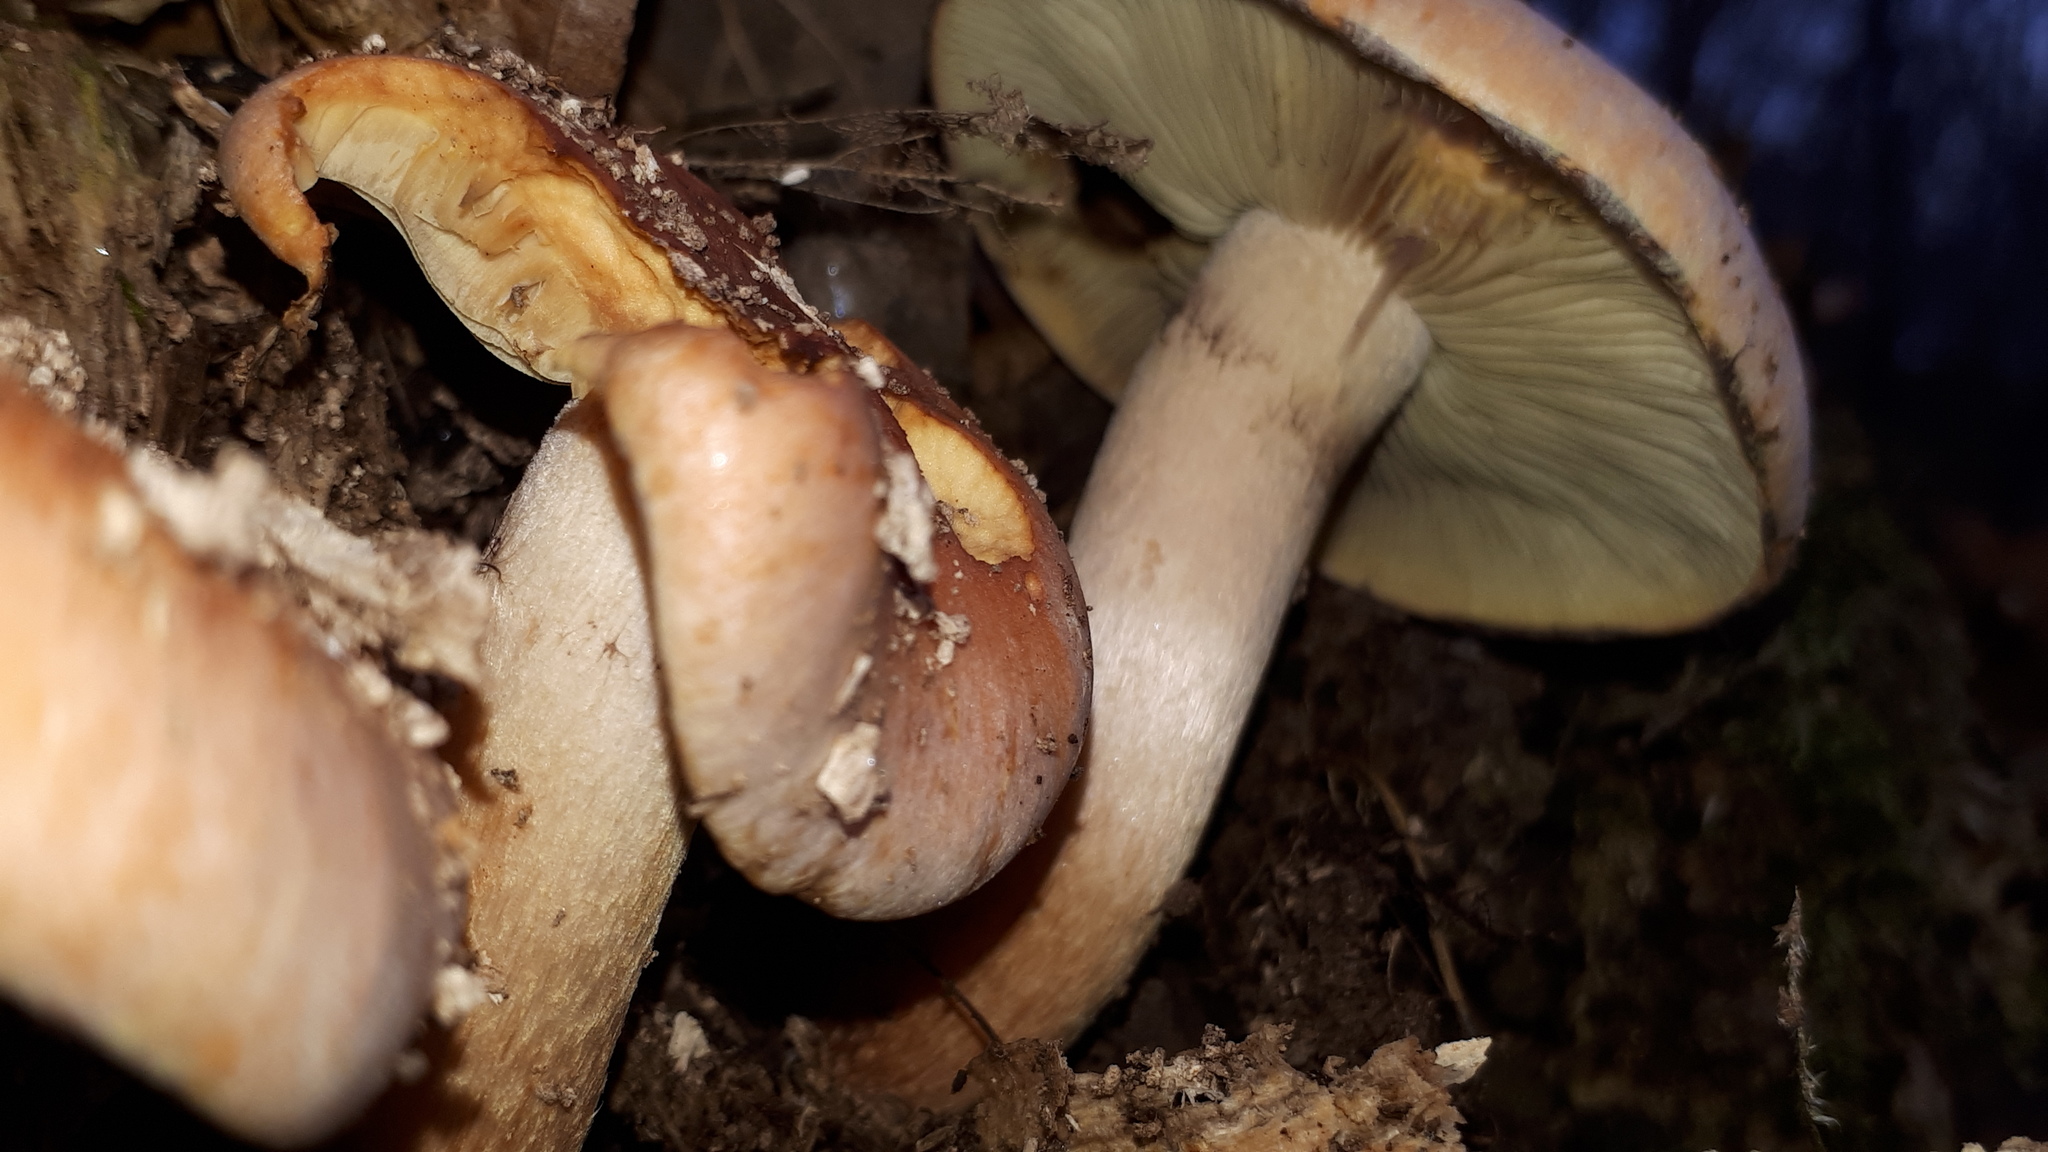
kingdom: Fungi
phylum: Basidiomycota
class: Agaricomycetes
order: Agaricales
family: Strophariaceae
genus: Hypholoma
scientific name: Hypholoma lateritium
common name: Brick caps
